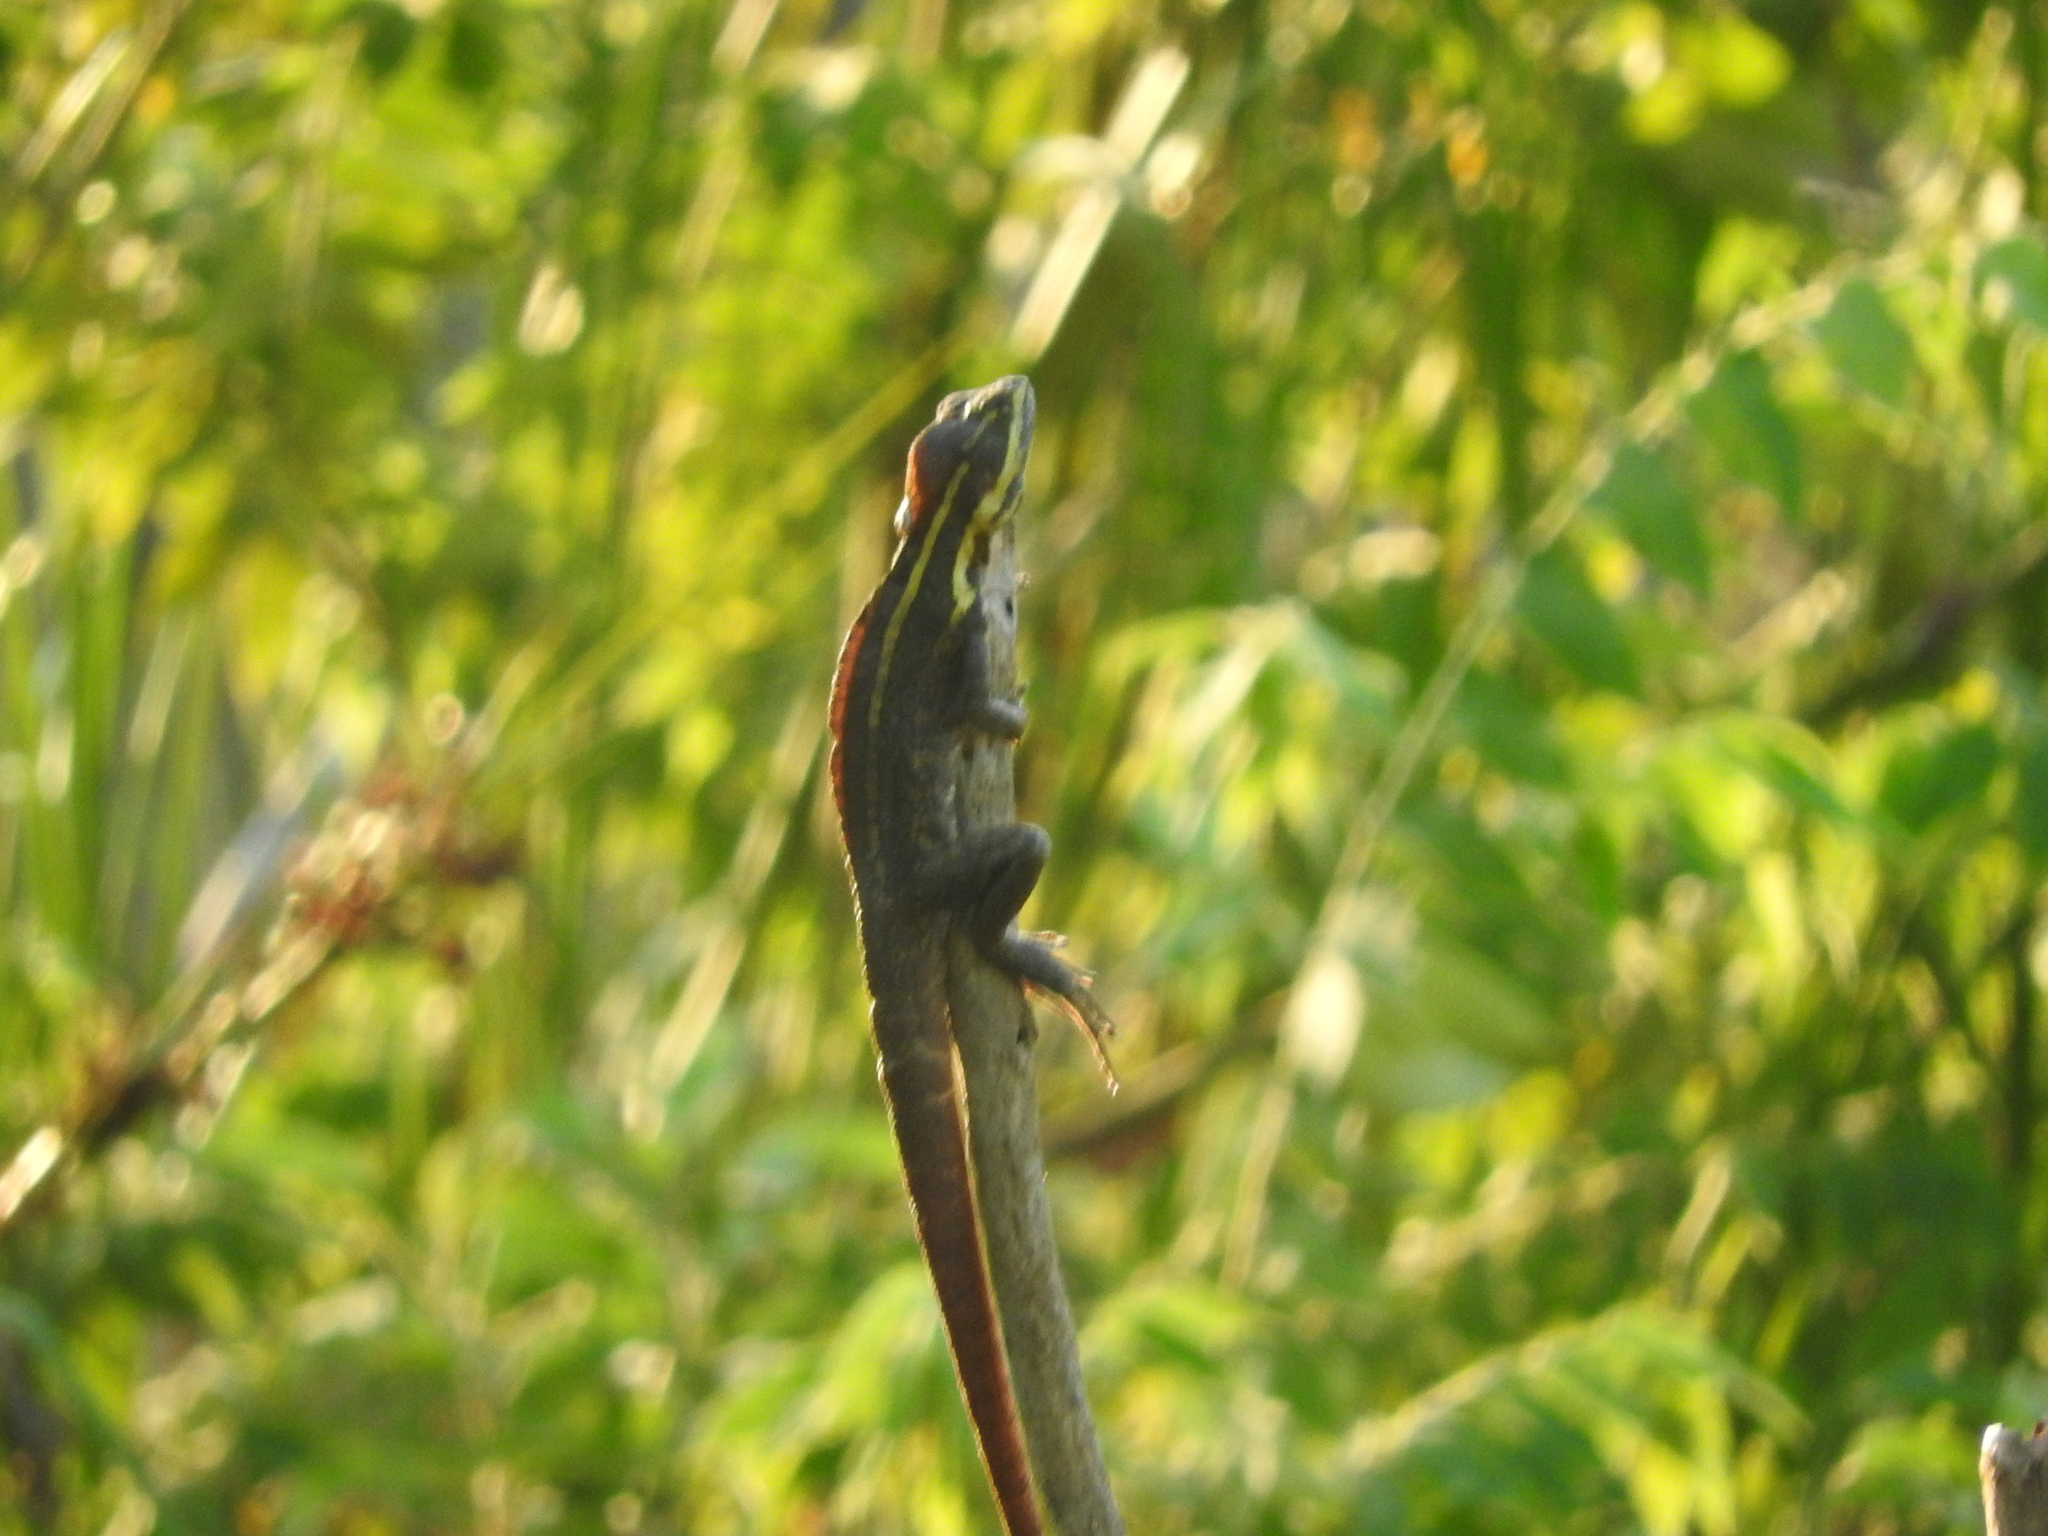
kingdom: Animalia
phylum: Chordata
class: Squamata
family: Corytophanidae
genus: Basiliscus
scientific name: Basiliscus vittatus
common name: Brown basilisk
